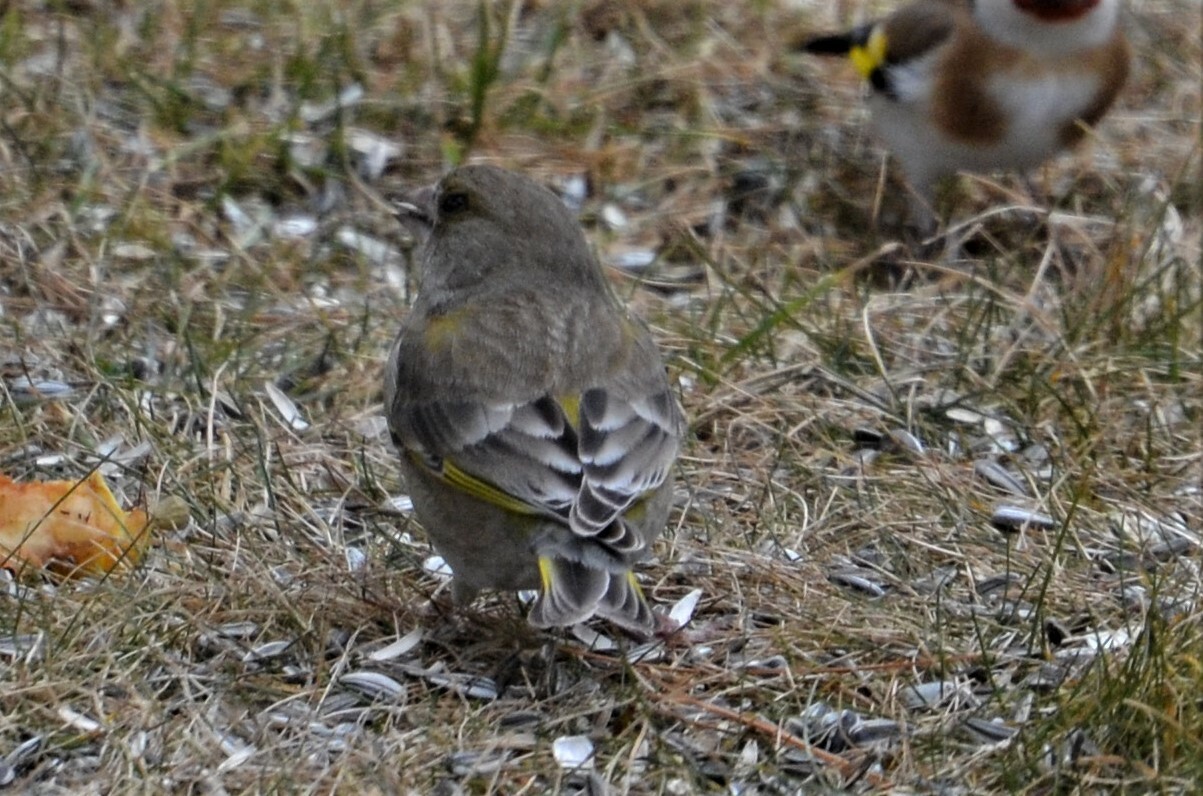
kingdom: Plantae
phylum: Tracheophyta
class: Liliopsida
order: Poales
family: Poaceae
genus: Chloris
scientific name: Chloris chloris
